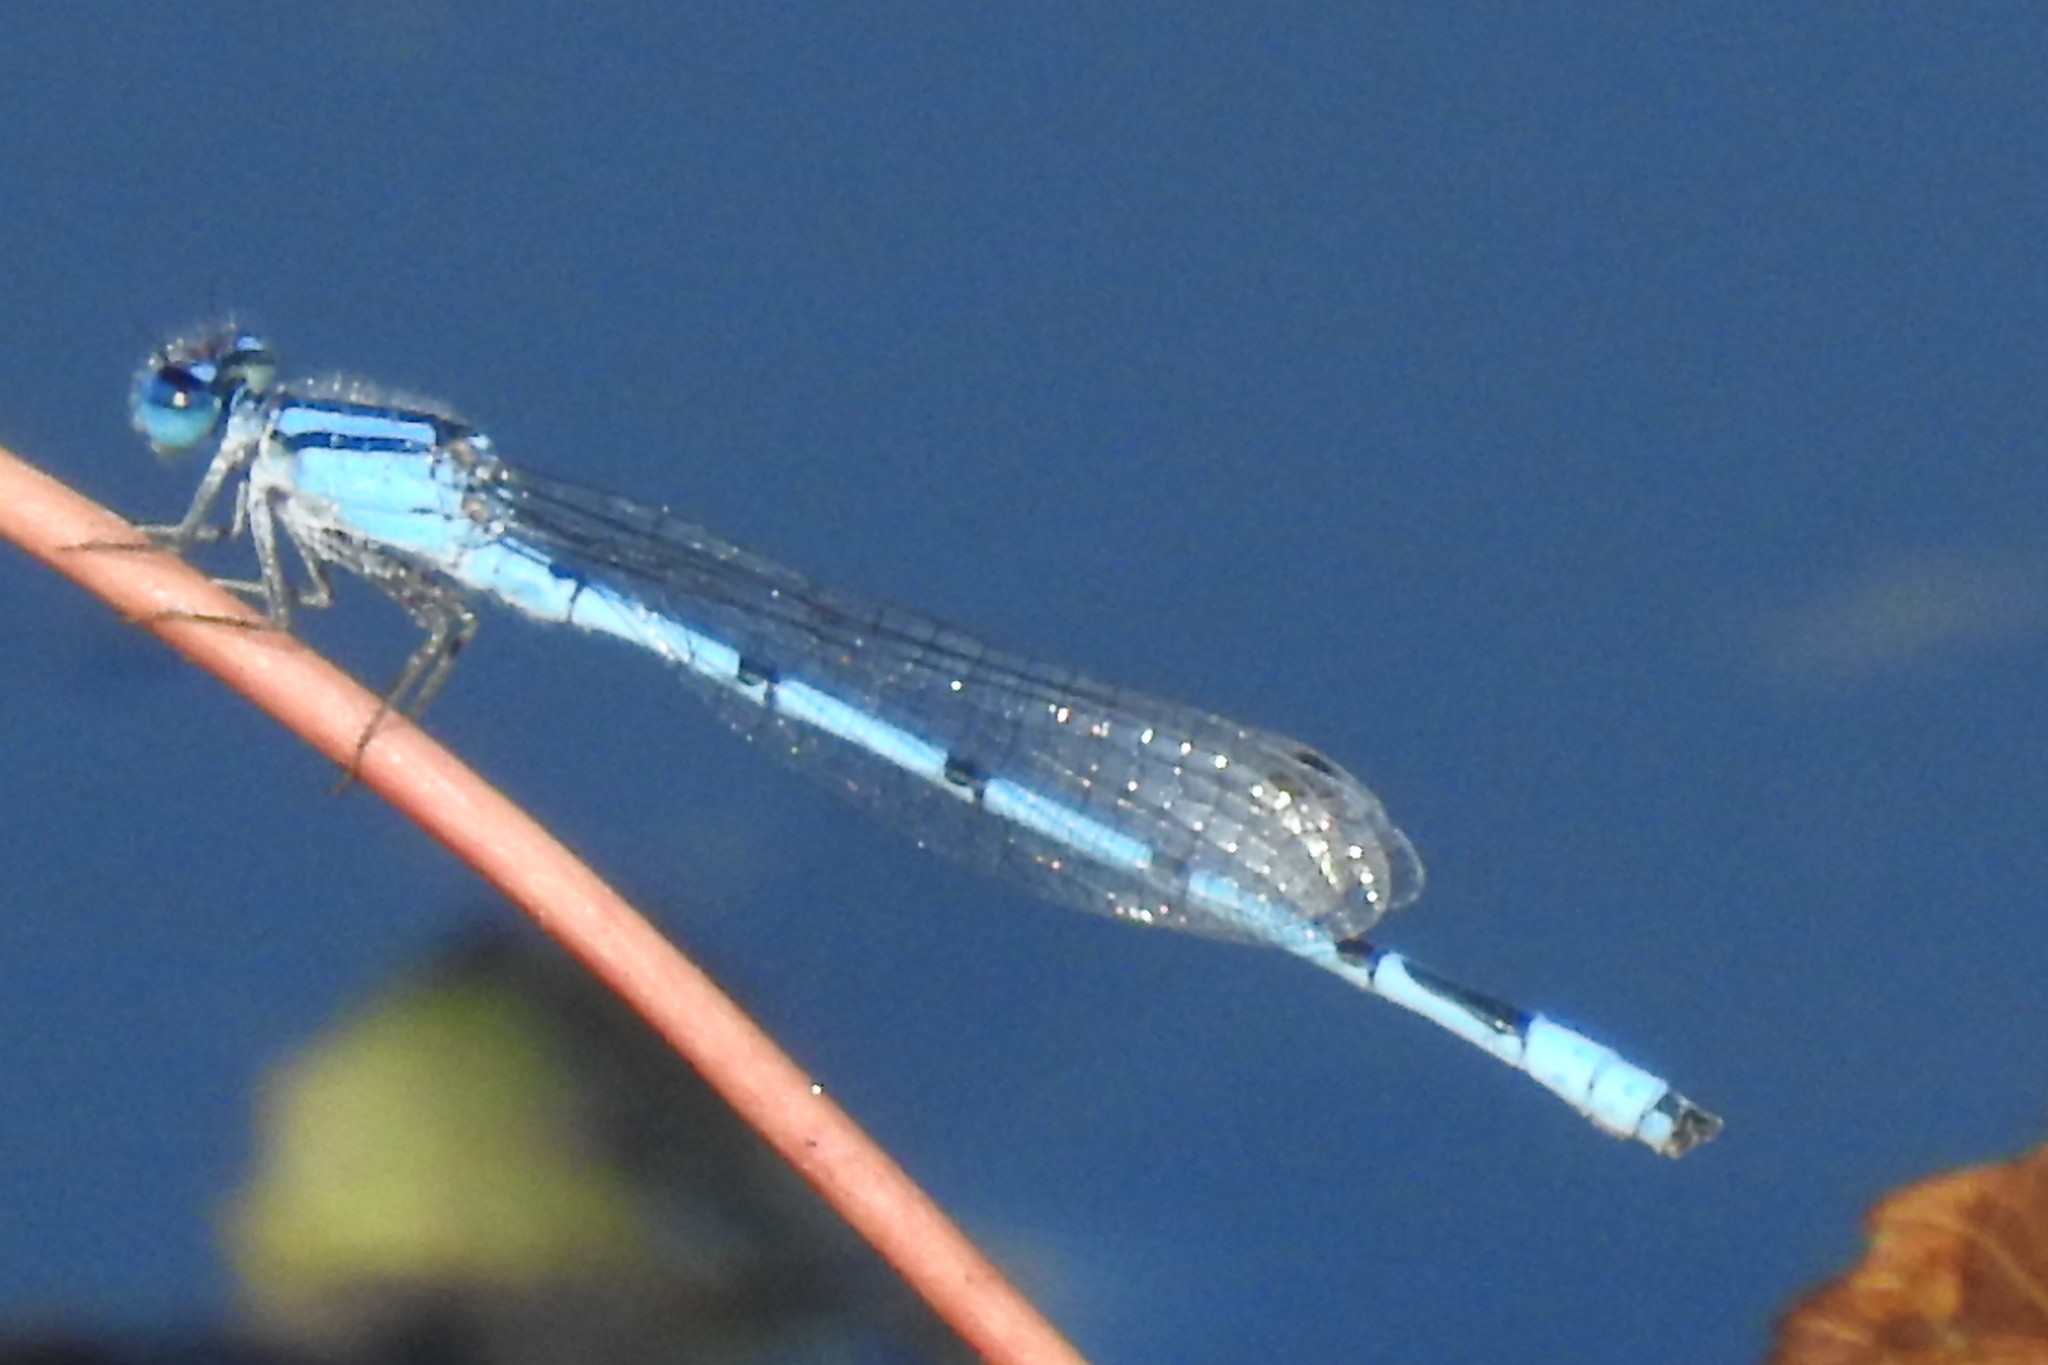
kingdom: Animalia
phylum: Arthropoda
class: Insecta
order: Odonata
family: Coenagrionidae
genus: Enallagma
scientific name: Enallagma civile
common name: Damselfly
